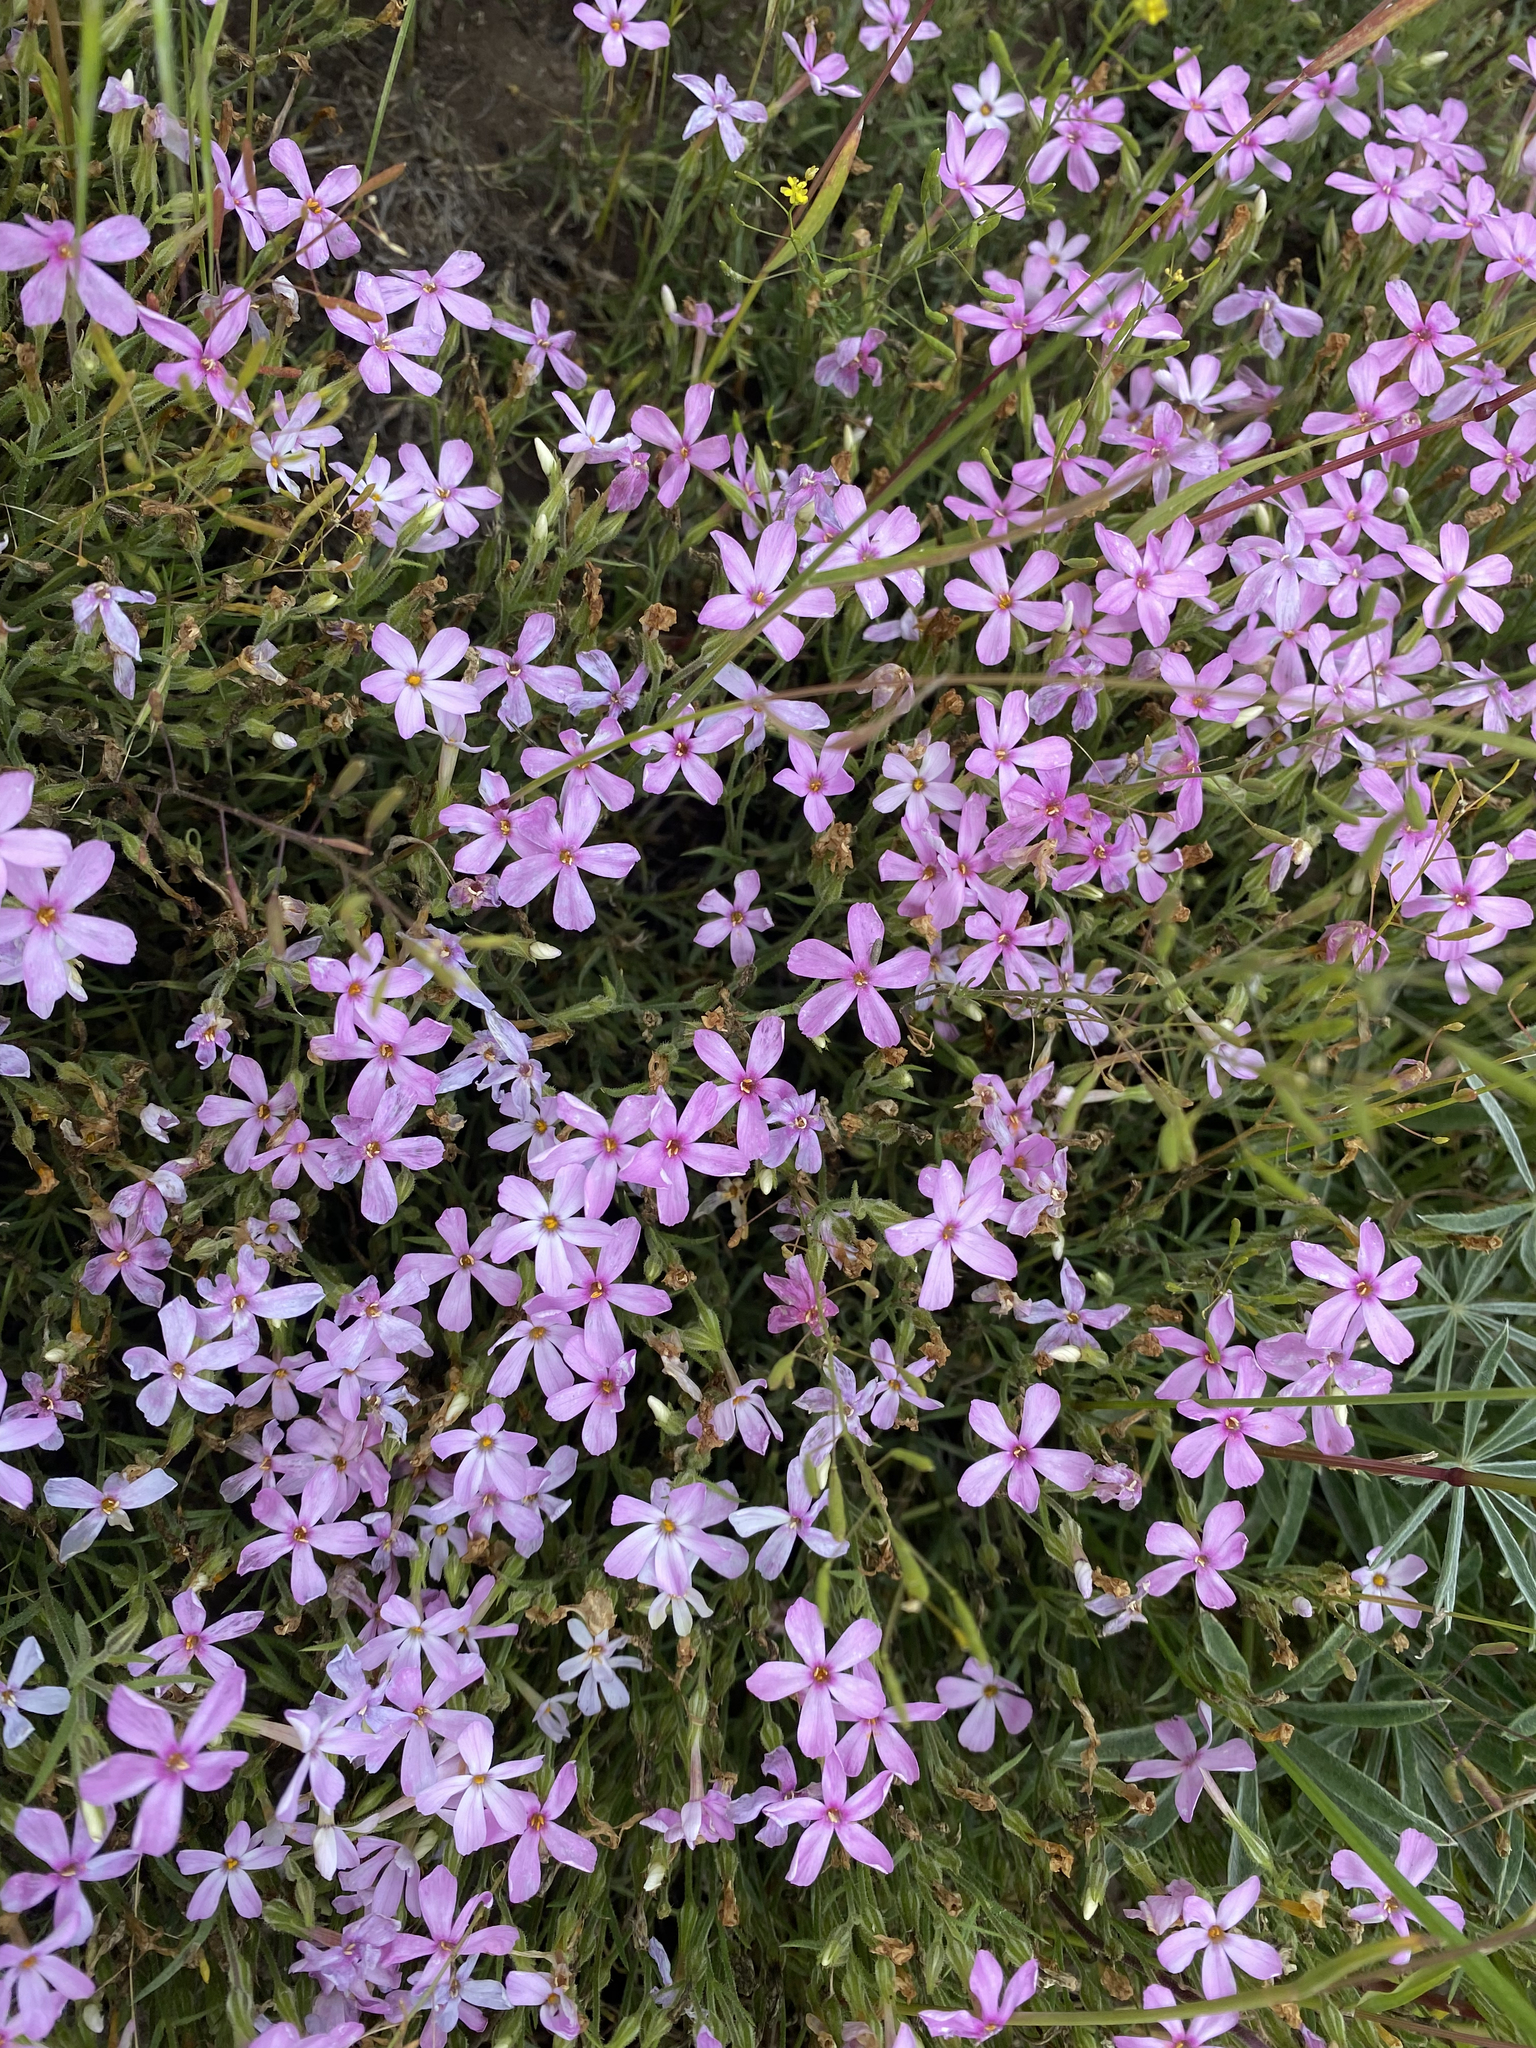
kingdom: Plantae
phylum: Tracheophyta
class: Magnoliopsida
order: Ericales
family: Polemoniaceae
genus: Phlox
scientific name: Phlox longifolia
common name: Longleaf phlox
